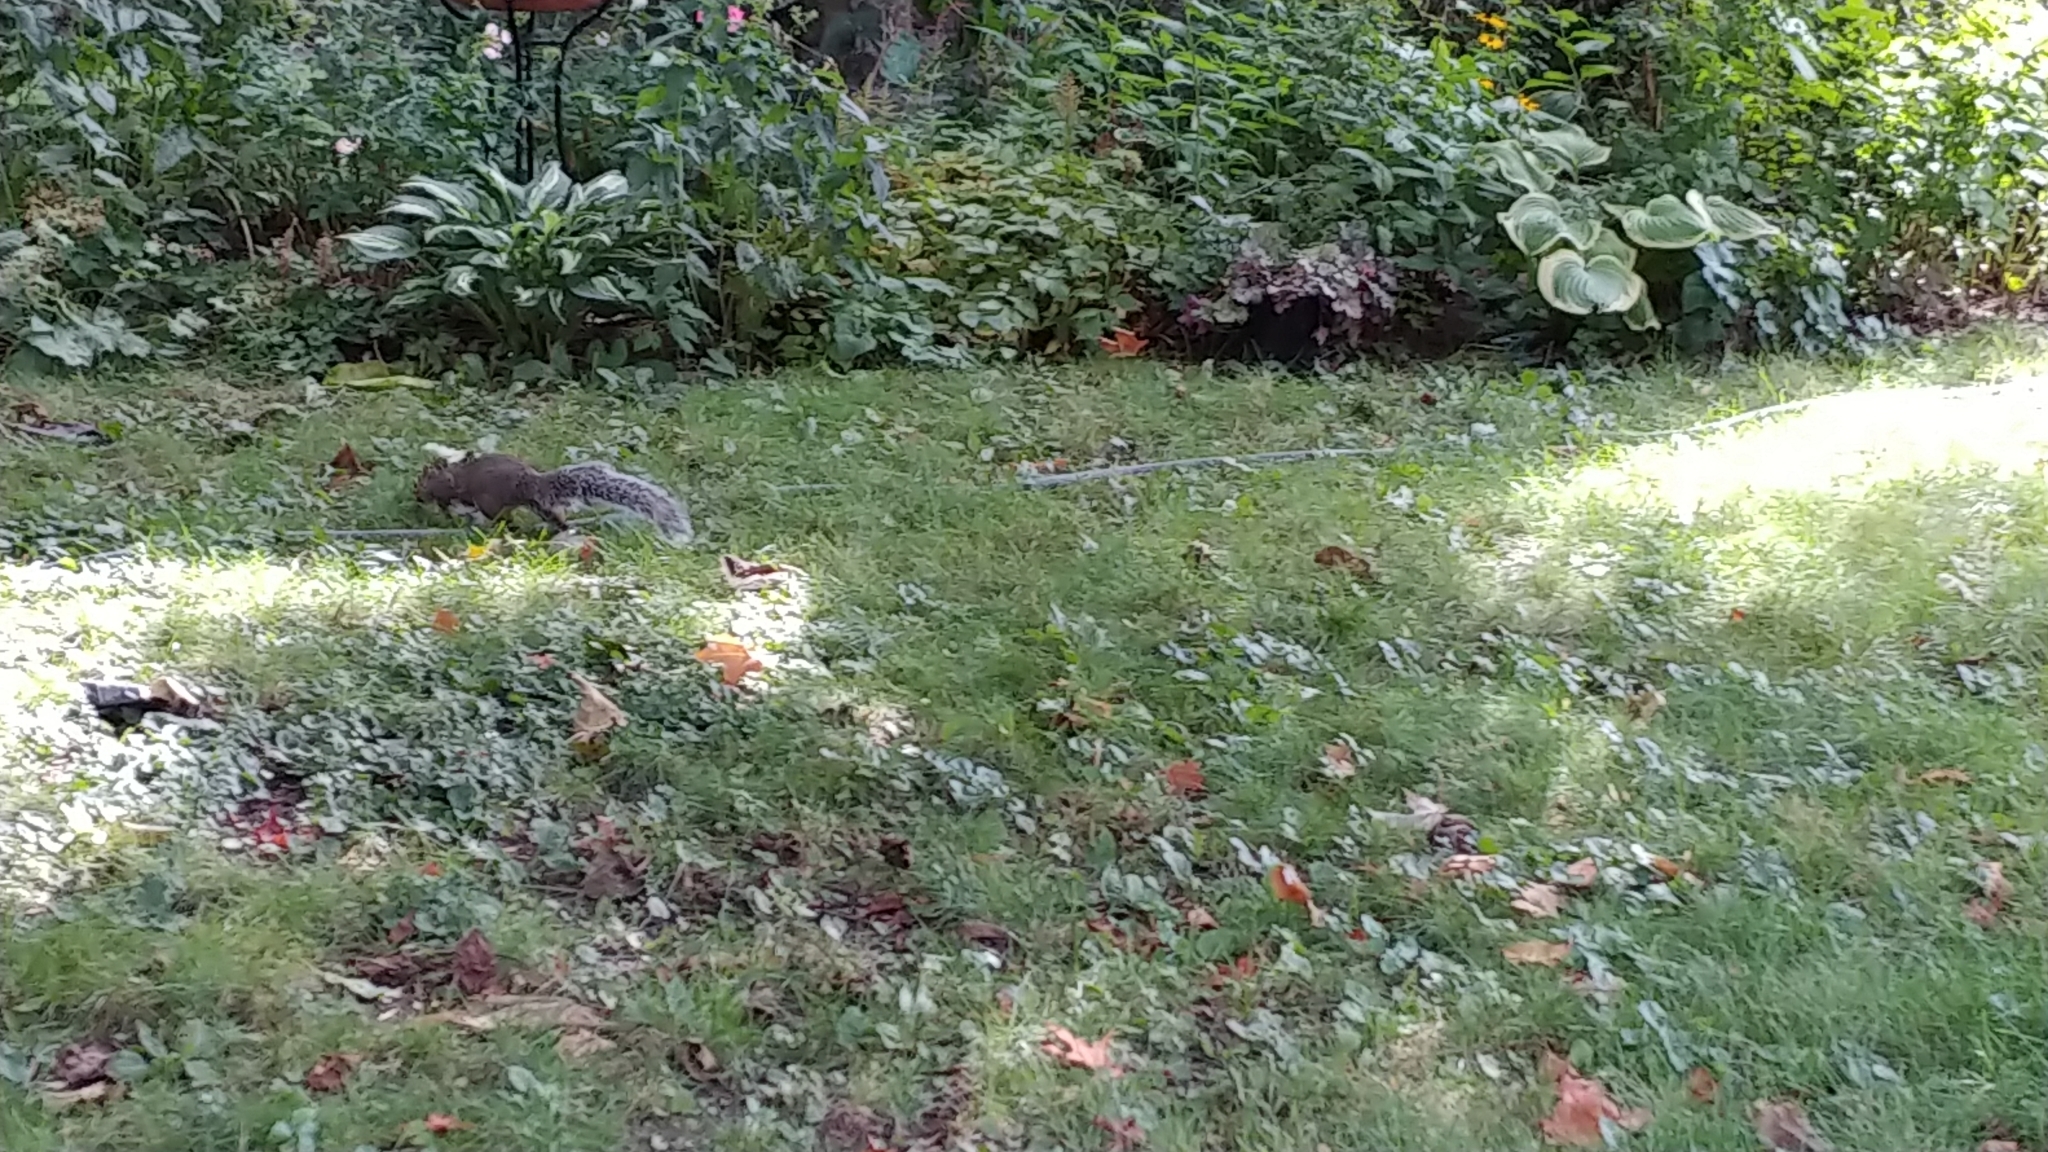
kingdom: Animalia
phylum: Chordata
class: Mammalia
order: Rodentia
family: Sciuridae
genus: Sciurus
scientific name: Sciurus carolinensis
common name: Eastern gray squirrel
